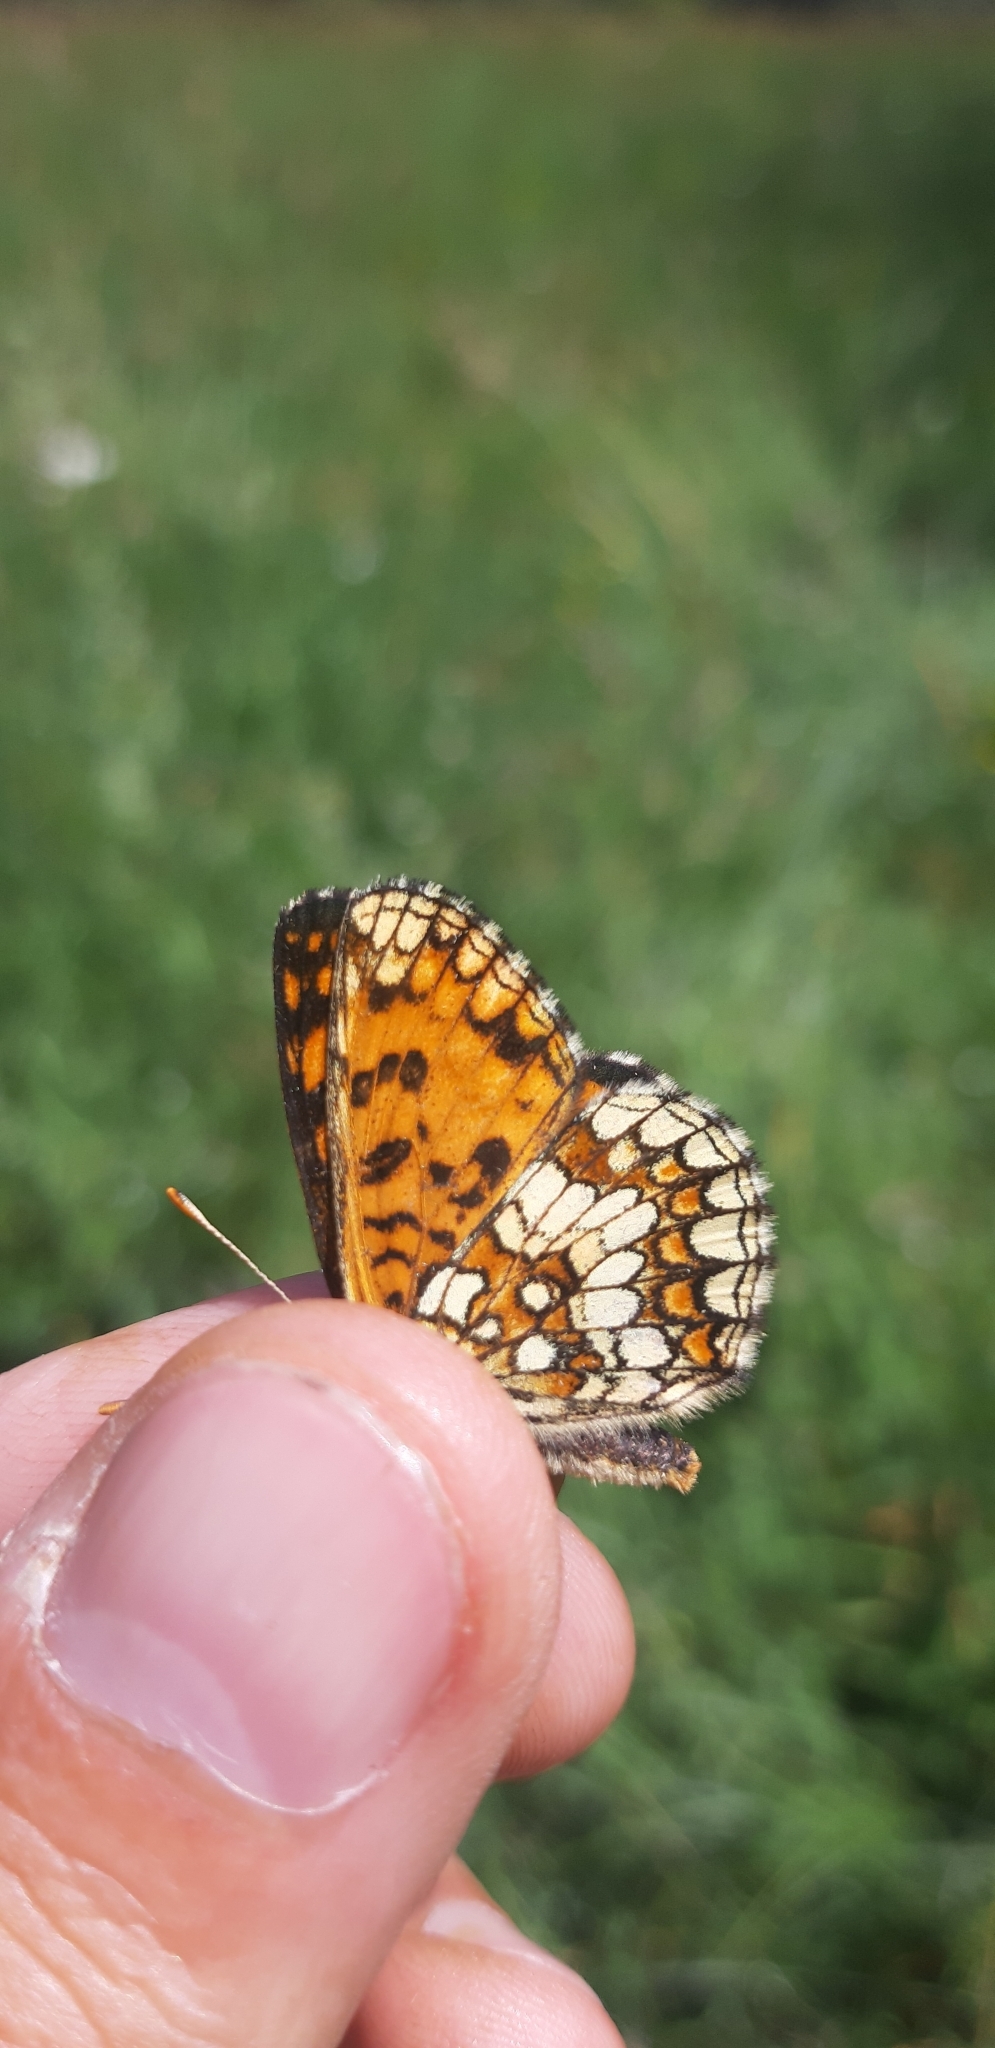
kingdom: Animalia
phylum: Arthropoda
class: Insecta
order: Lepidoptera
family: Nymphalidae
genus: Mellicta
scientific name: Mellicta athalia
